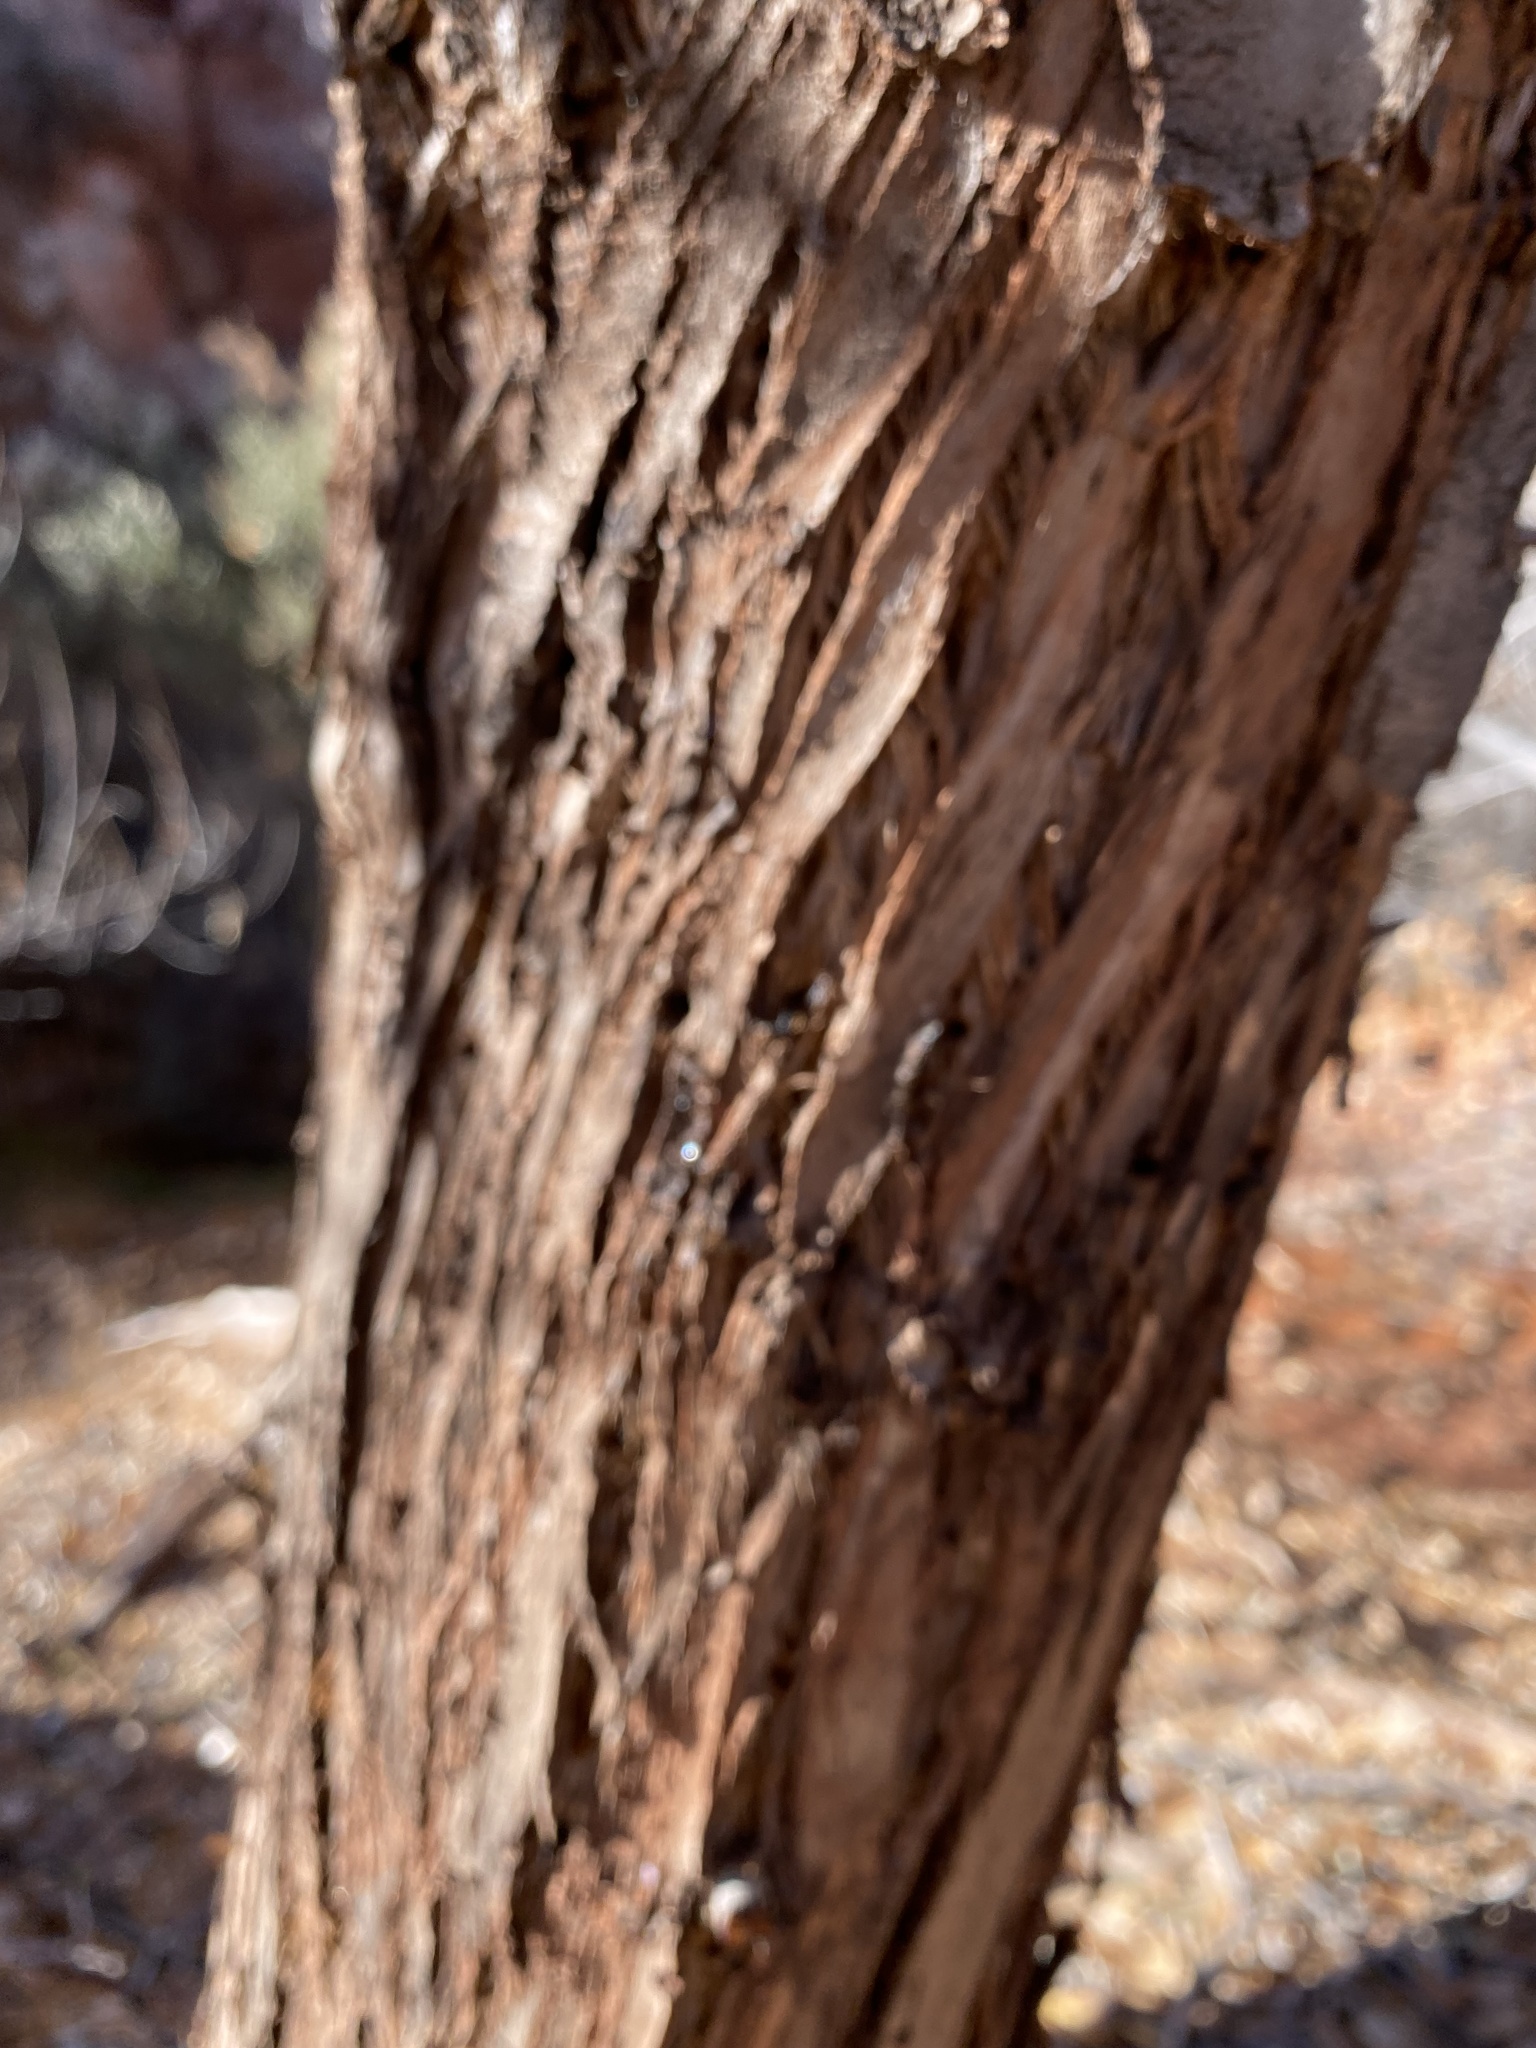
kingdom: Plantae
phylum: Tracheophyta
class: Magnoliopsida
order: Rosales
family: Elaeagnaceae
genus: Elaeagnus
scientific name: Elaeagnus angustifolia
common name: Russian olive
